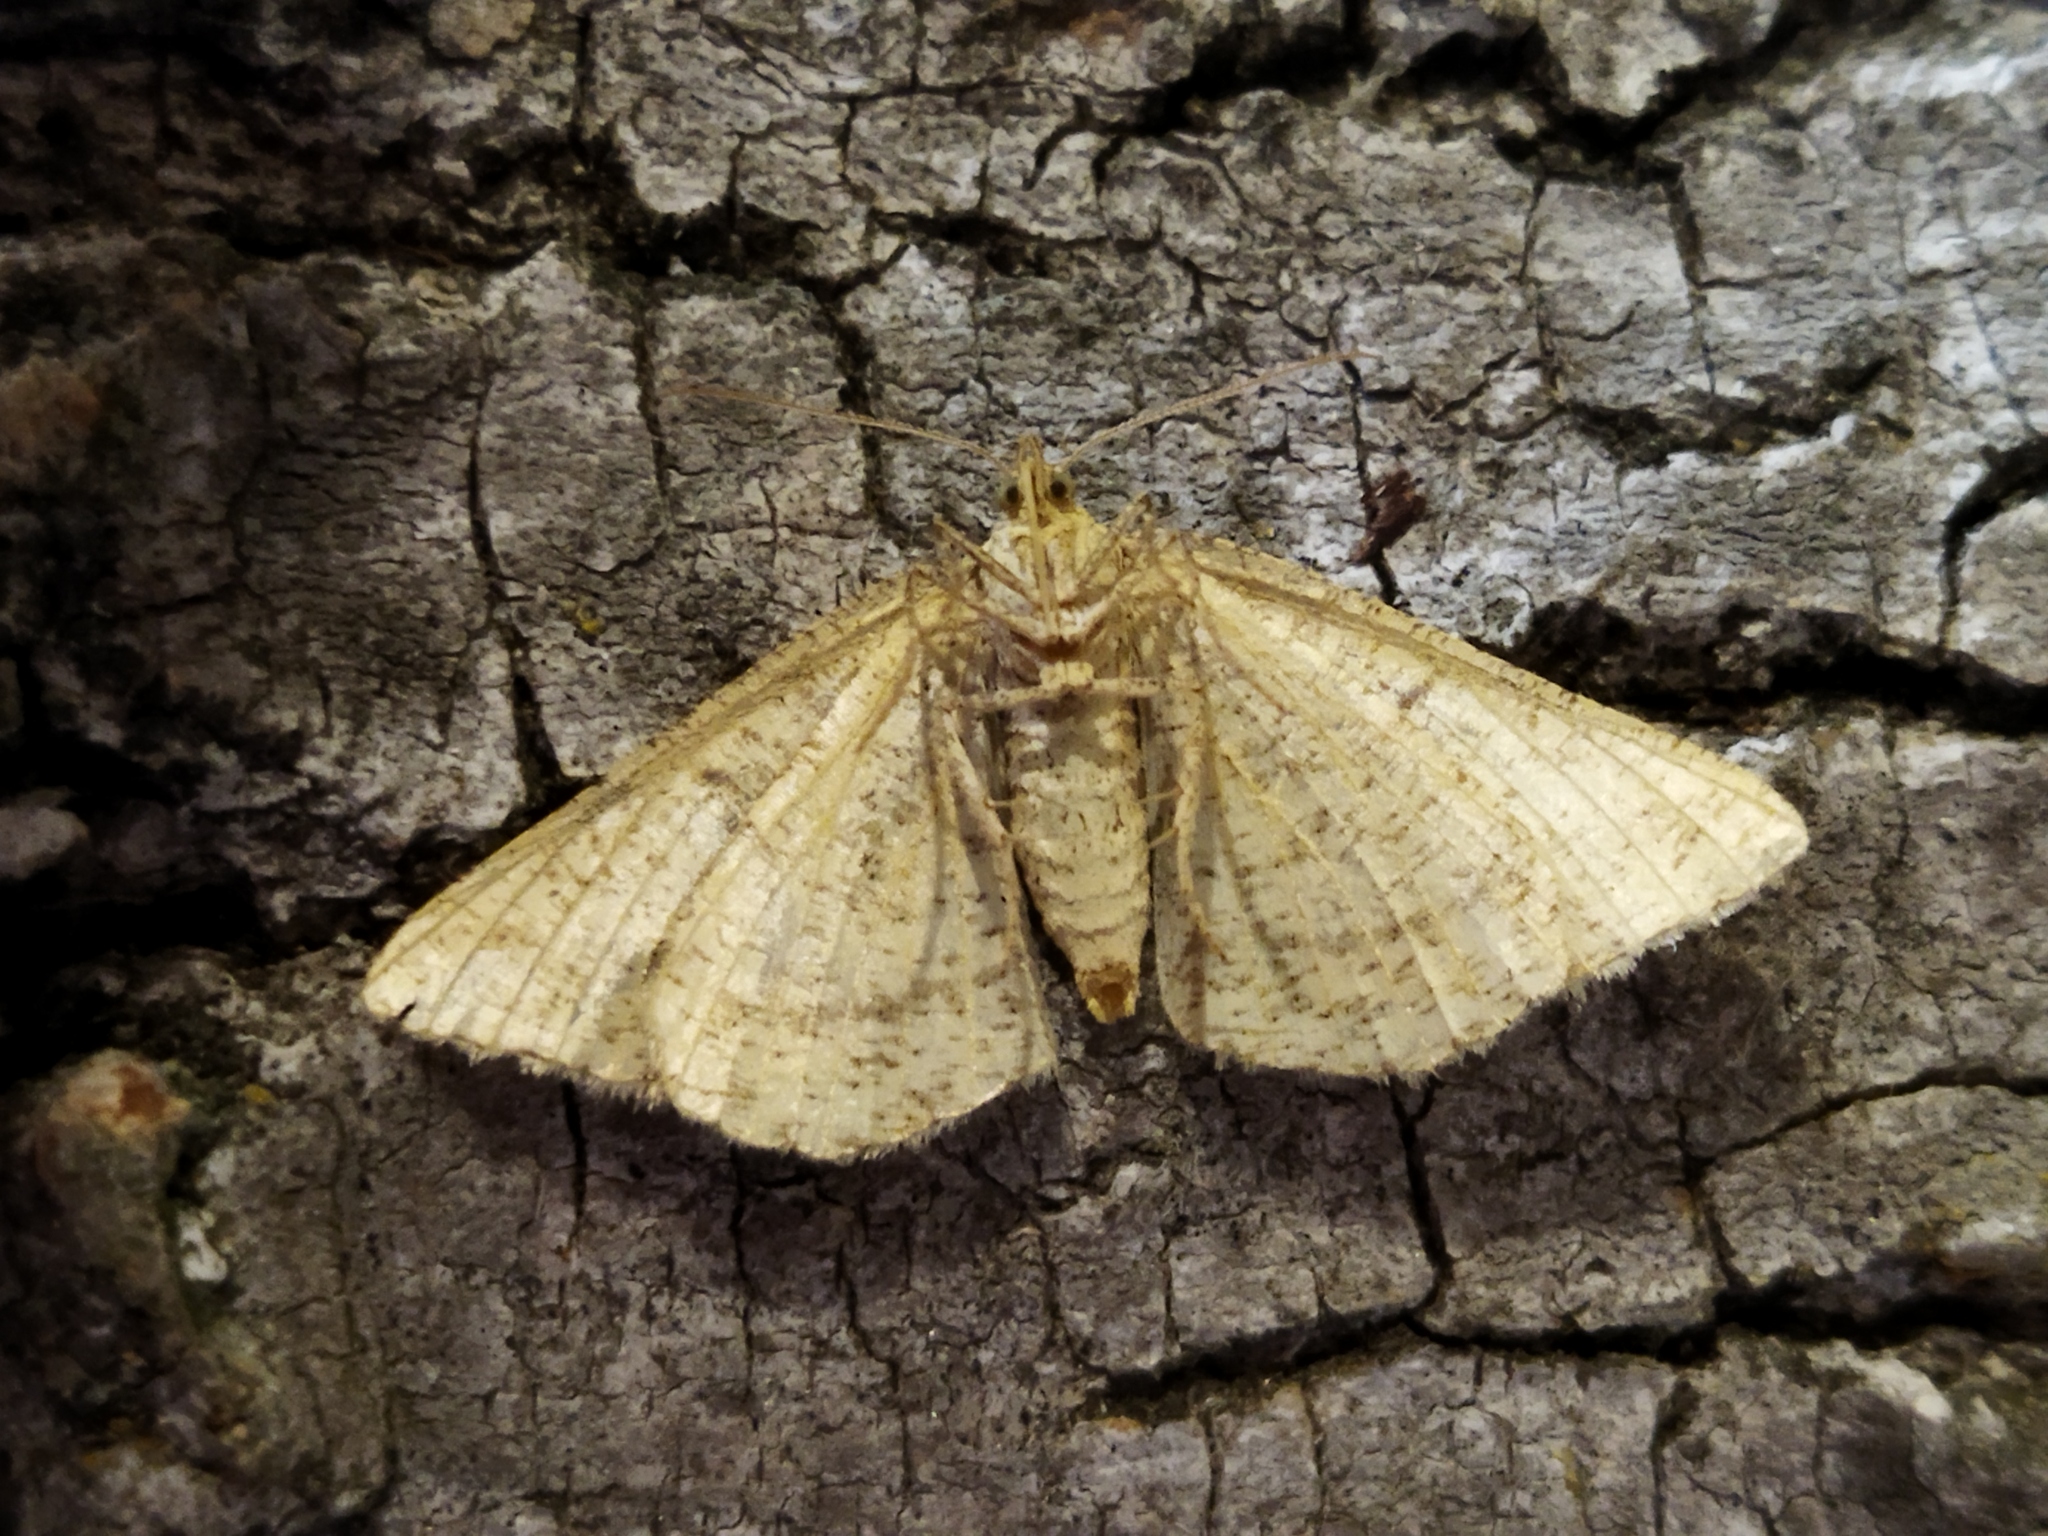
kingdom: Animalia
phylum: Arthropoda
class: Insecta
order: Lepidoptera
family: Geometridae
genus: Tephrina
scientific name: Tephrina arenacearia
